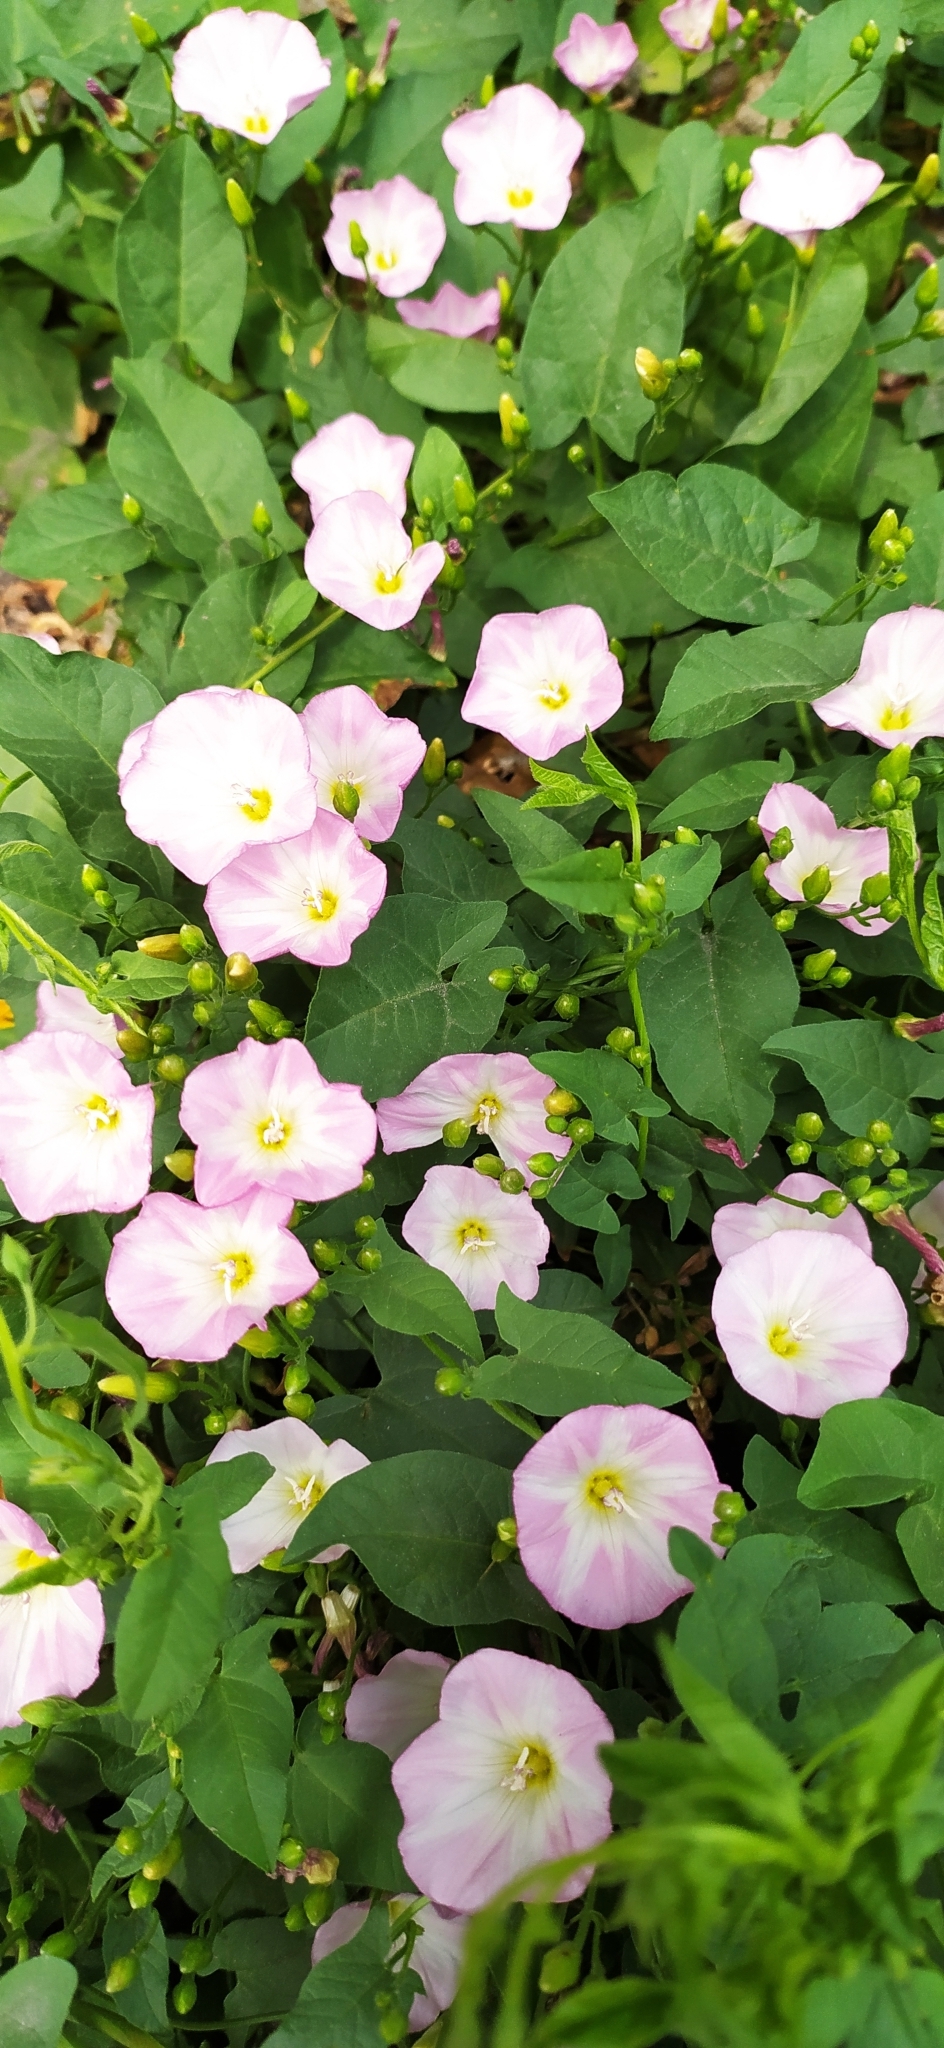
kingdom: Plantae
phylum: Tracheophyta
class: Magnoliopsida
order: Solanales
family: Convolvulaceae
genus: Convolvulus
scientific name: Convolvulus arvensis
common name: Field bindweed
